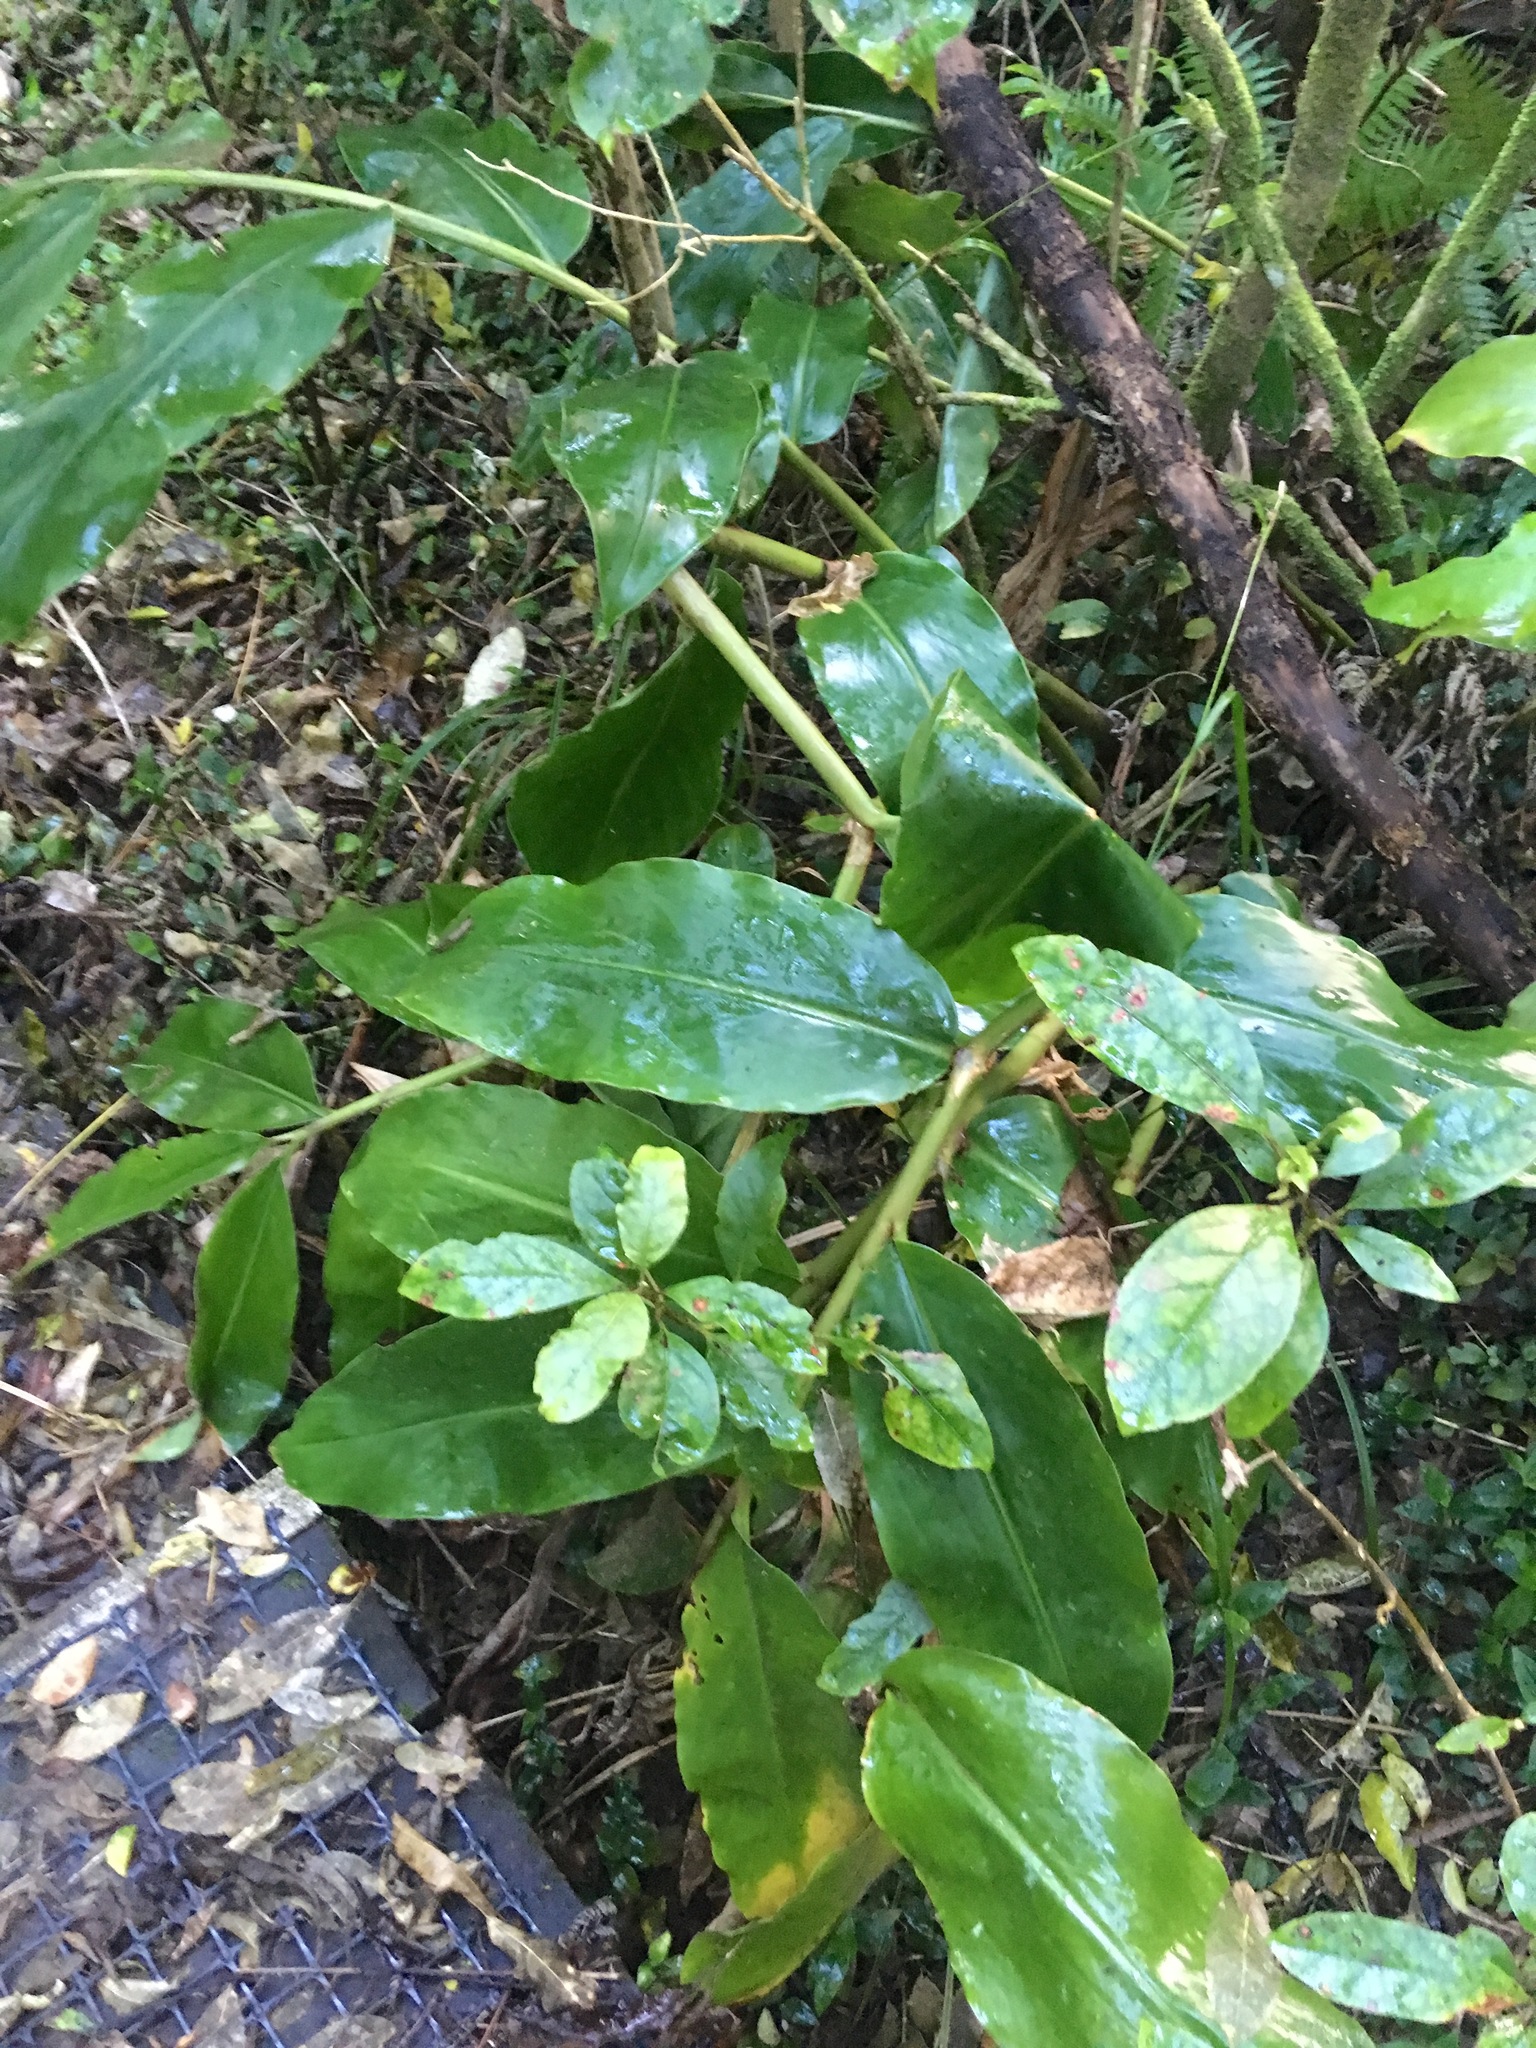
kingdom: Plantae
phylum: Tracheophyta
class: Liliopsida
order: Zingiberales
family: Zingiberaceae
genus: Hedychium
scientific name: Hedychium gardnerianum
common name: Himalayan ginger
